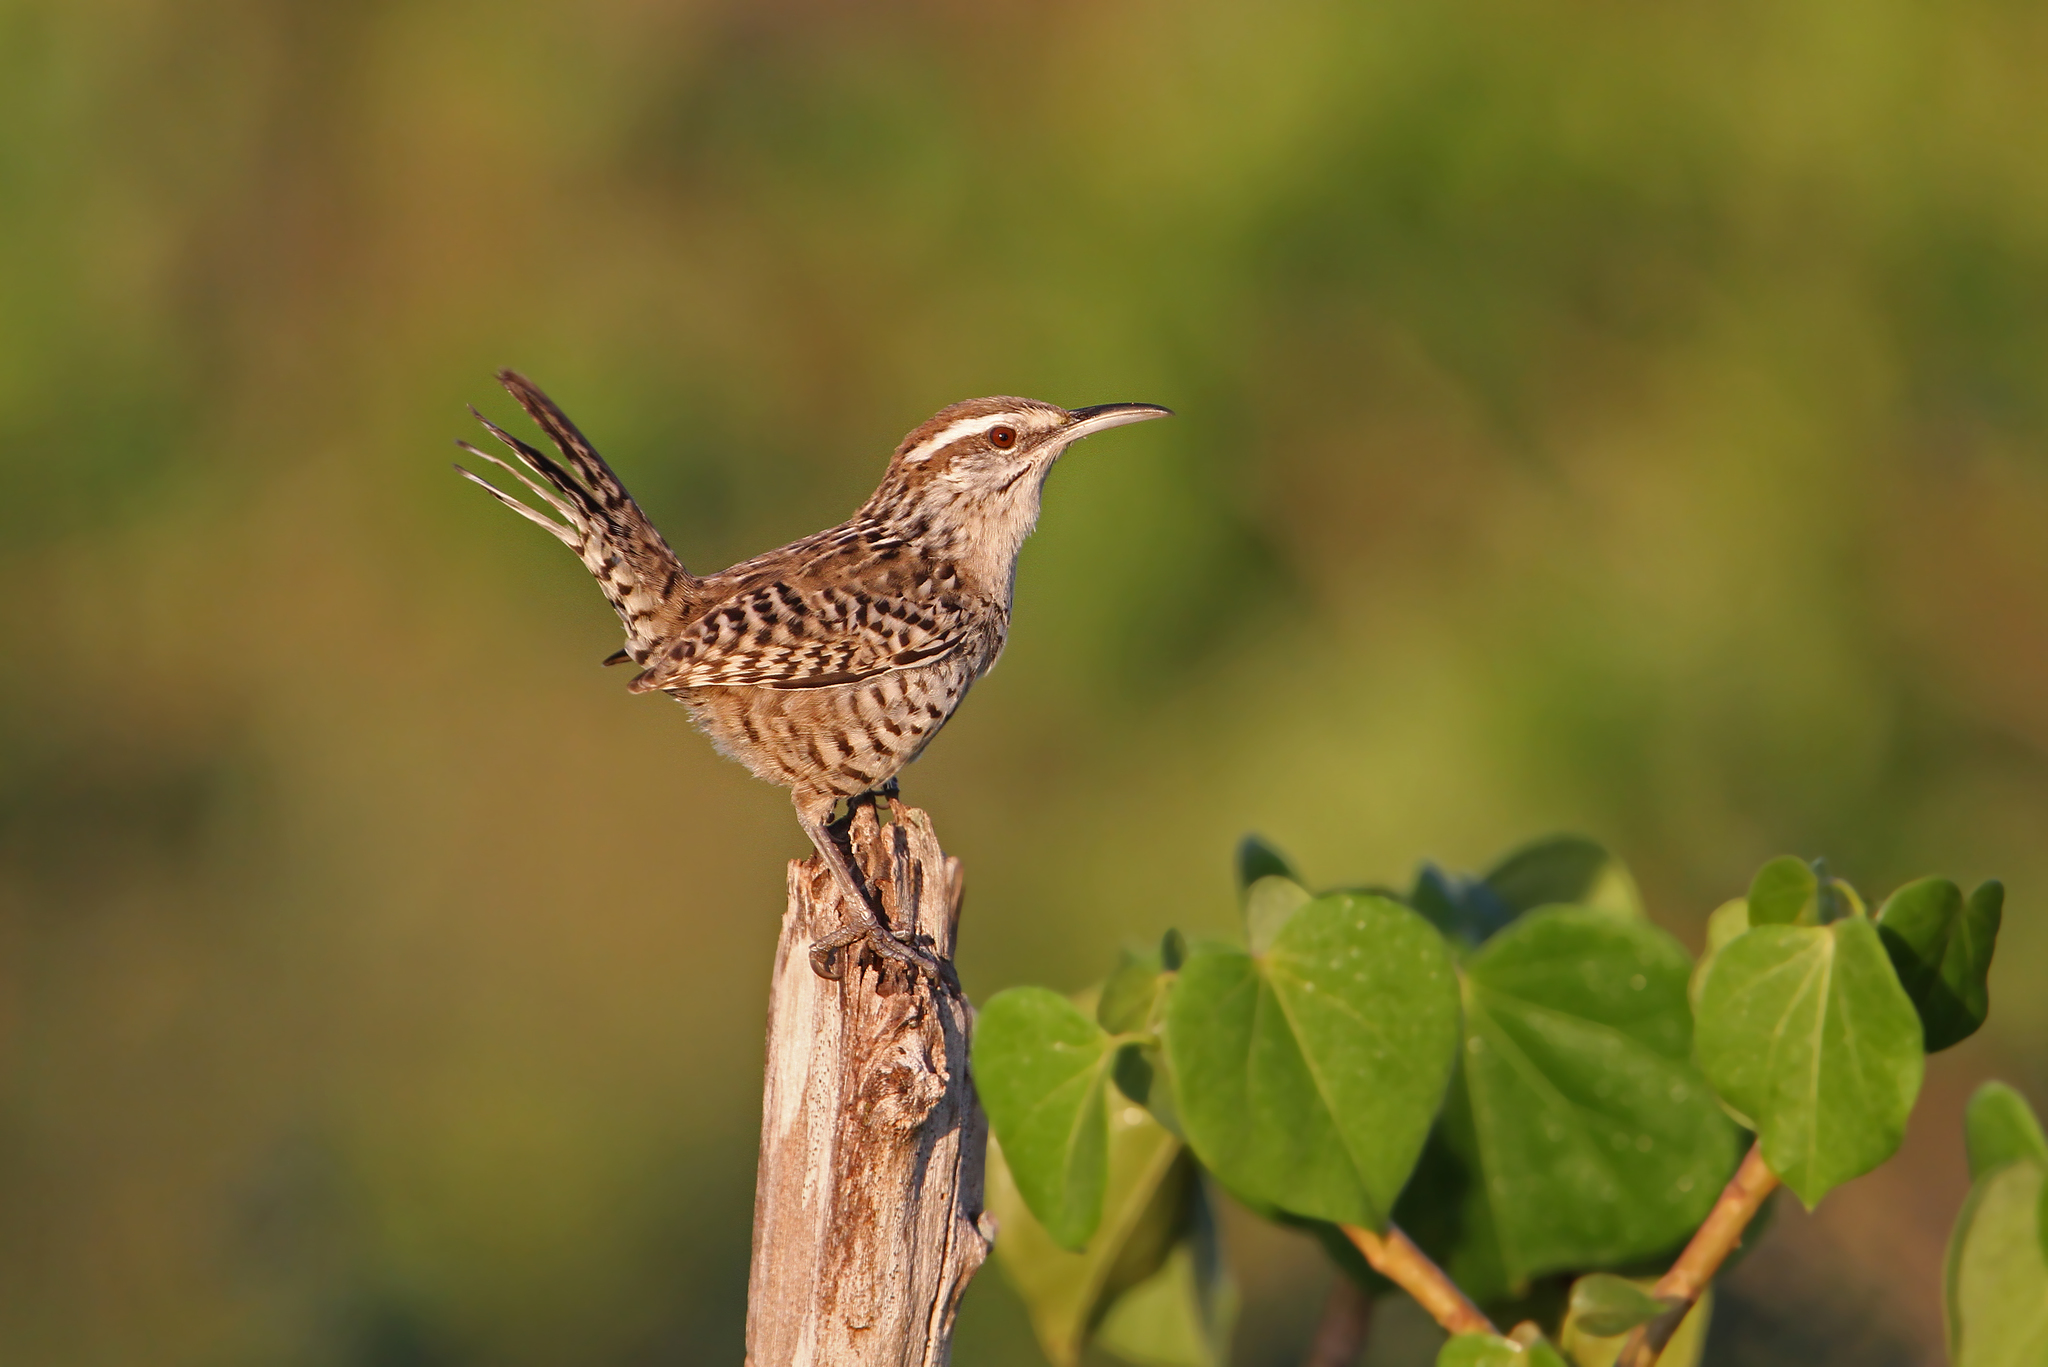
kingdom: Animalia
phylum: Chordata
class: Aves
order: Passeriformes
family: Troglodytidae
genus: Campylorhynchus
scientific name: Campylorhynchus yucatanicus
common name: Yucatan wren
